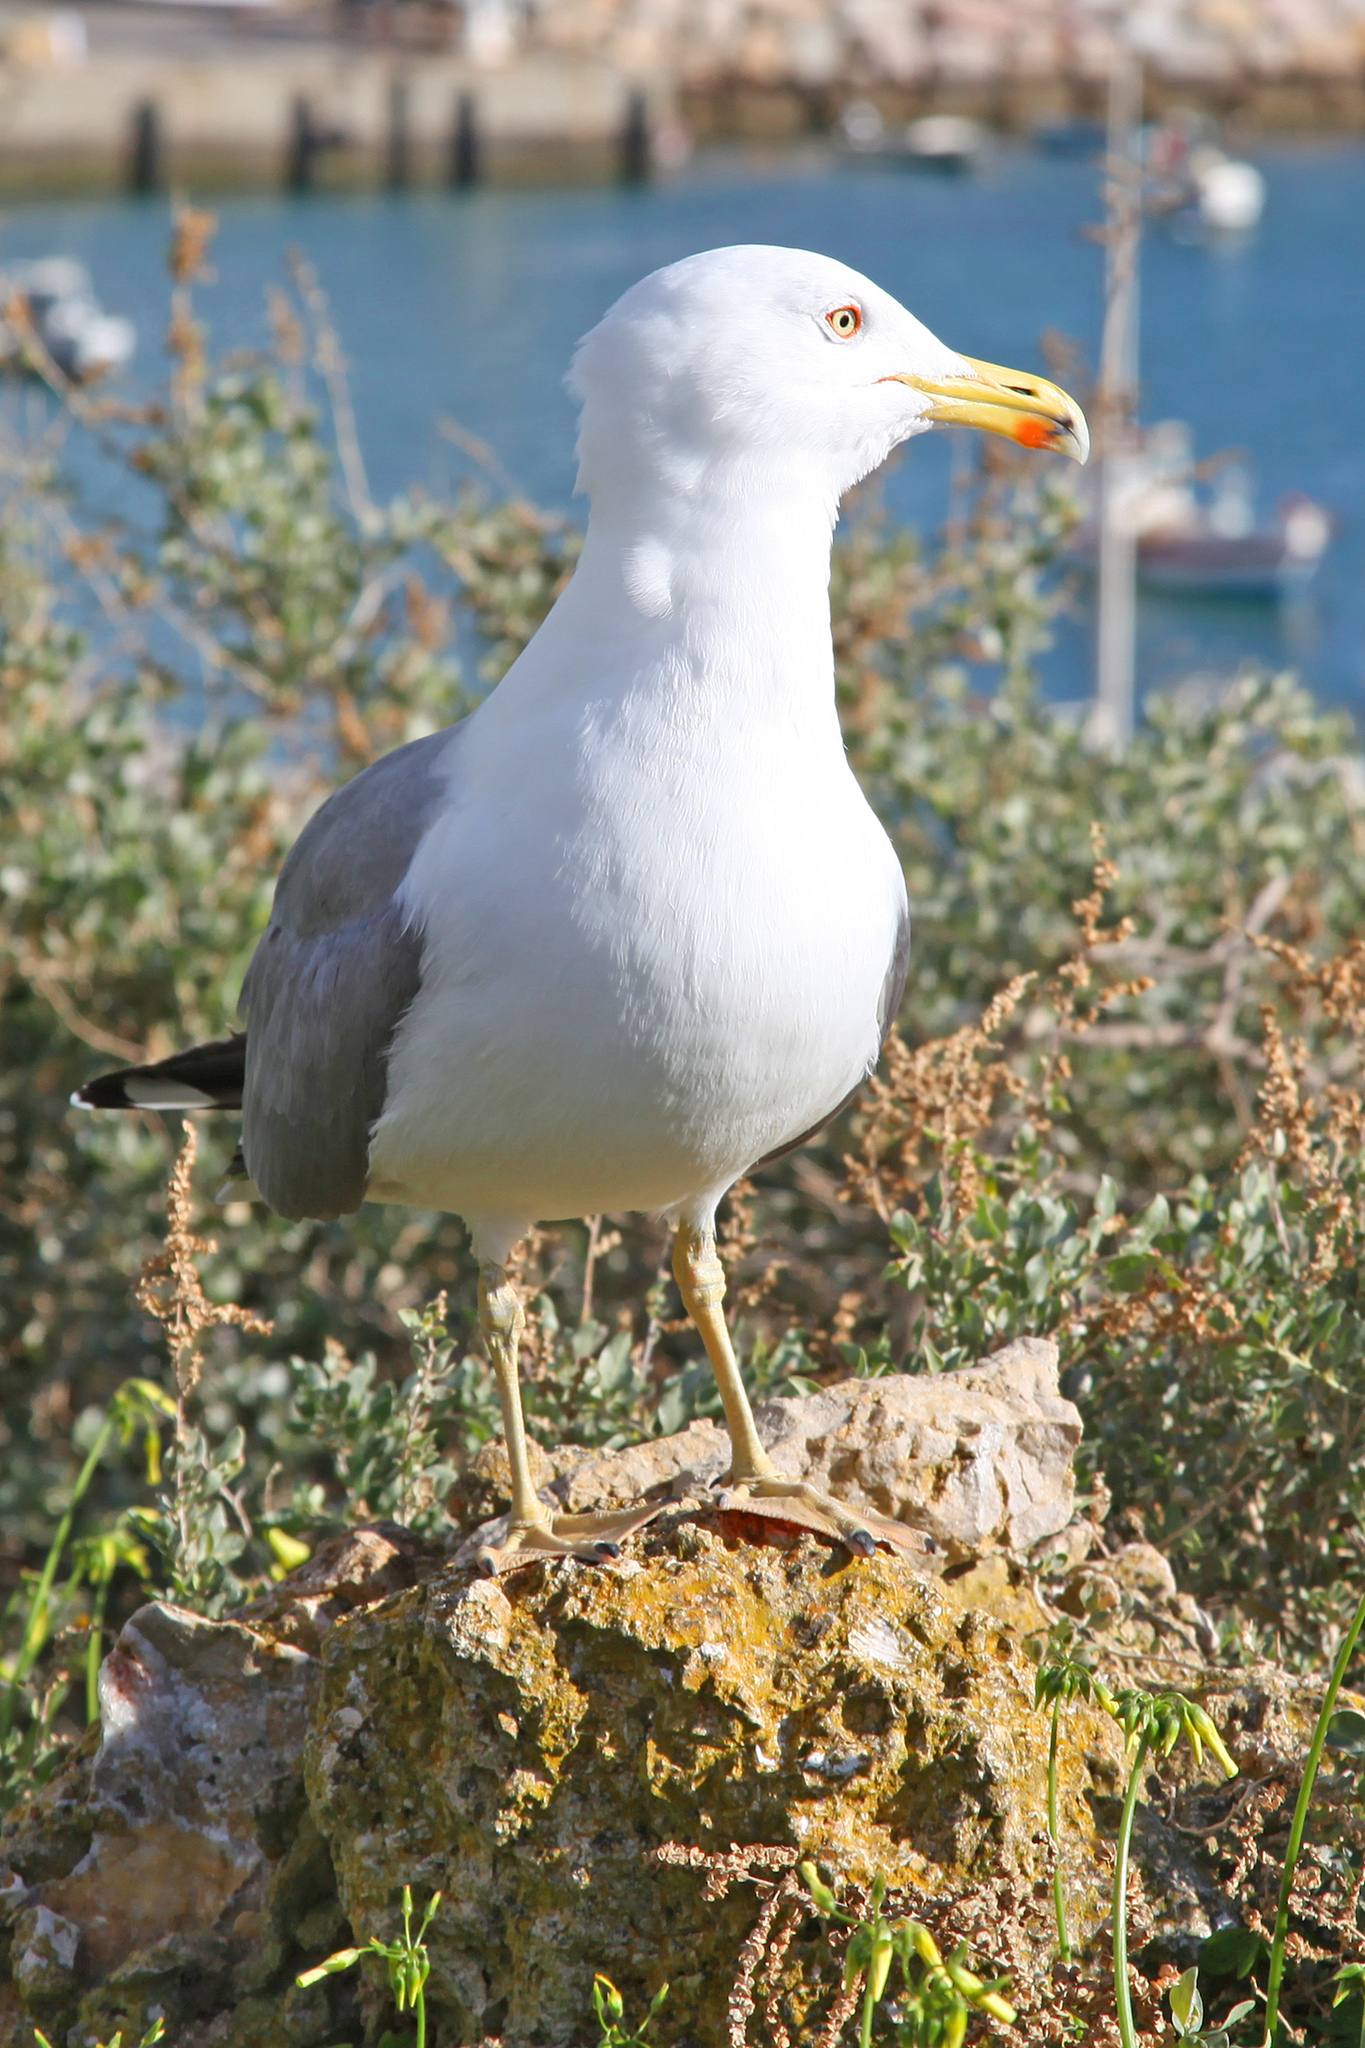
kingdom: Animalia
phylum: Chordata
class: Aves
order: Charadriiformes
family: Laridae
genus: Larus
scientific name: Larus michahellis
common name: Yellow-legged gull
